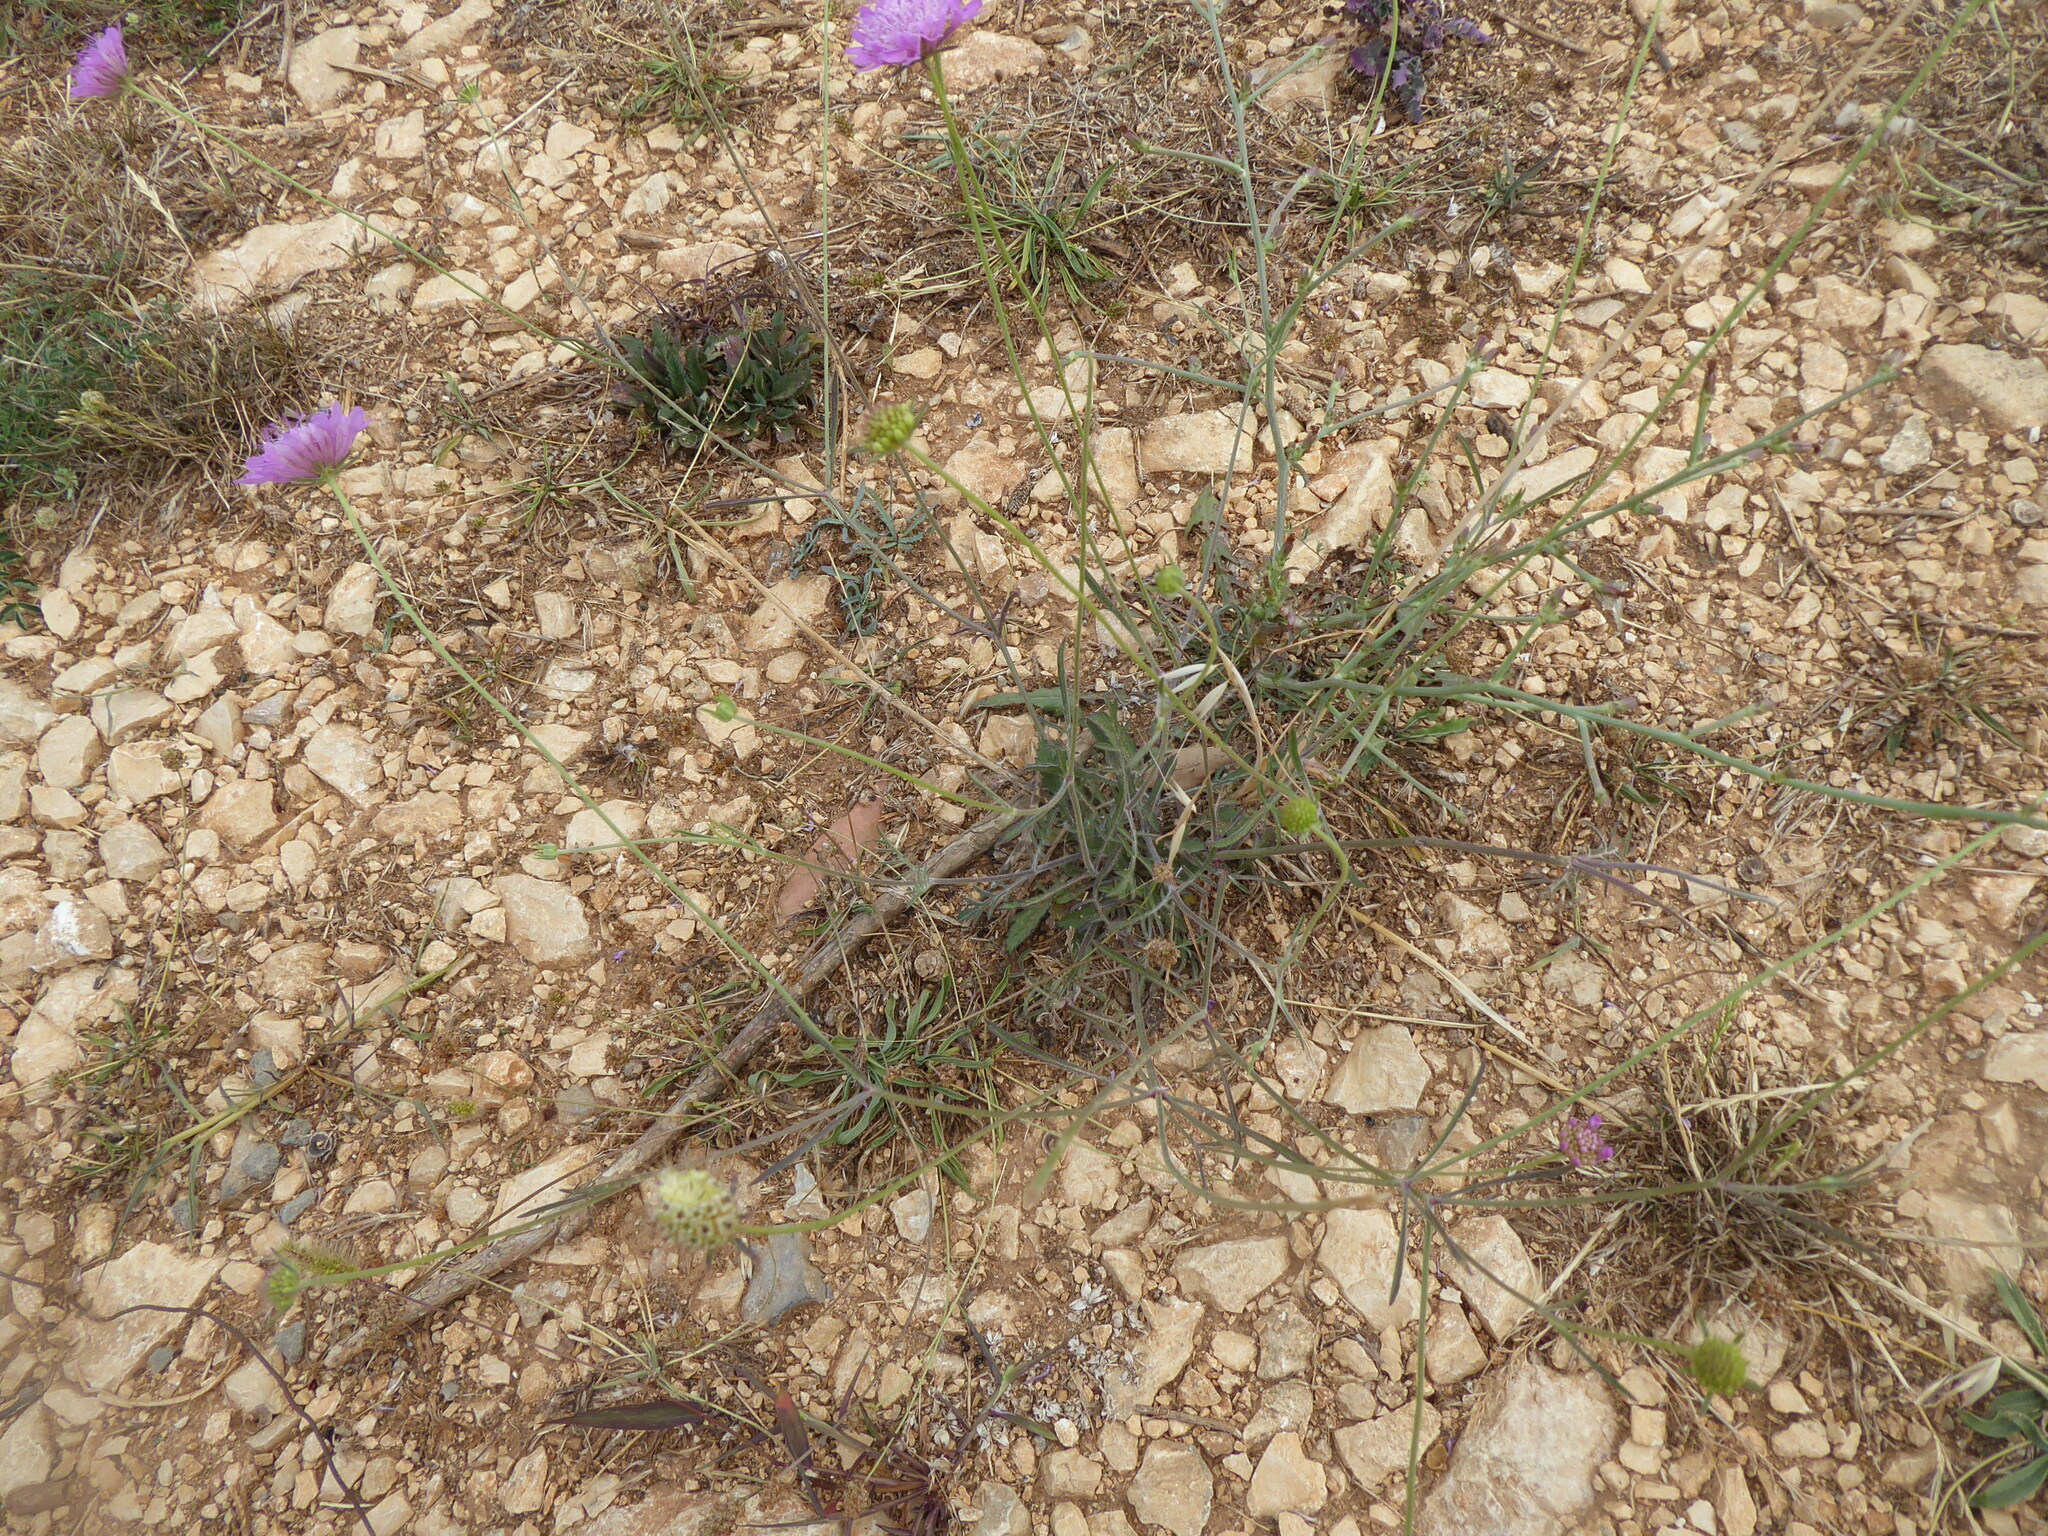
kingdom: Plantae
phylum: Tracheophyta
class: Magnoliopsida
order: Dipsacales
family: Caprifoliaceae
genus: Sixalix
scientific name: Sixalix maritima
